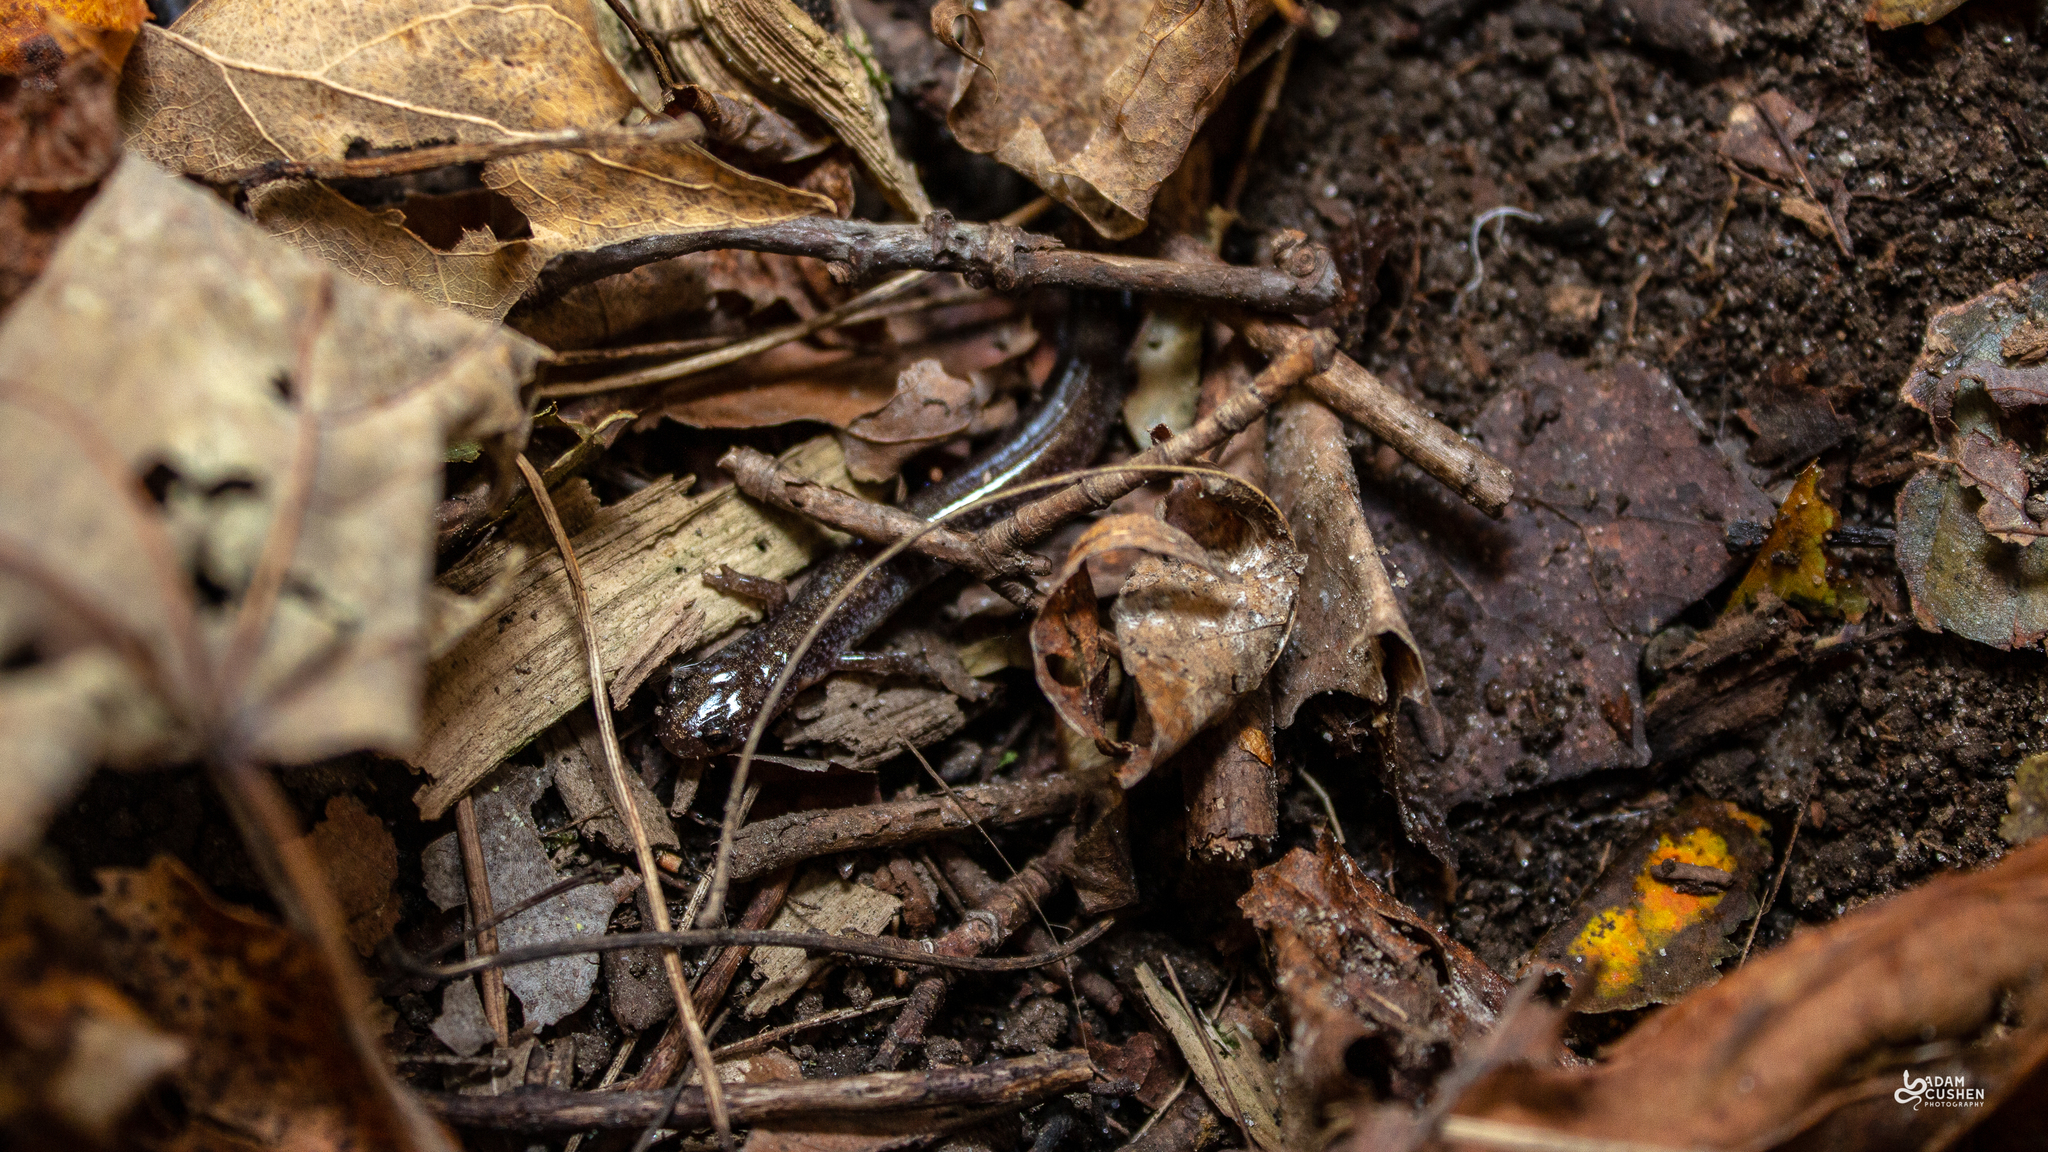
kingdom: Animalia
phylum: Chordata
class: Amphibia
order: Caudata
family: Plethodontidae
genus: Plethodon
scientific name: Plethodon cinereus
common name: Redback salamander
